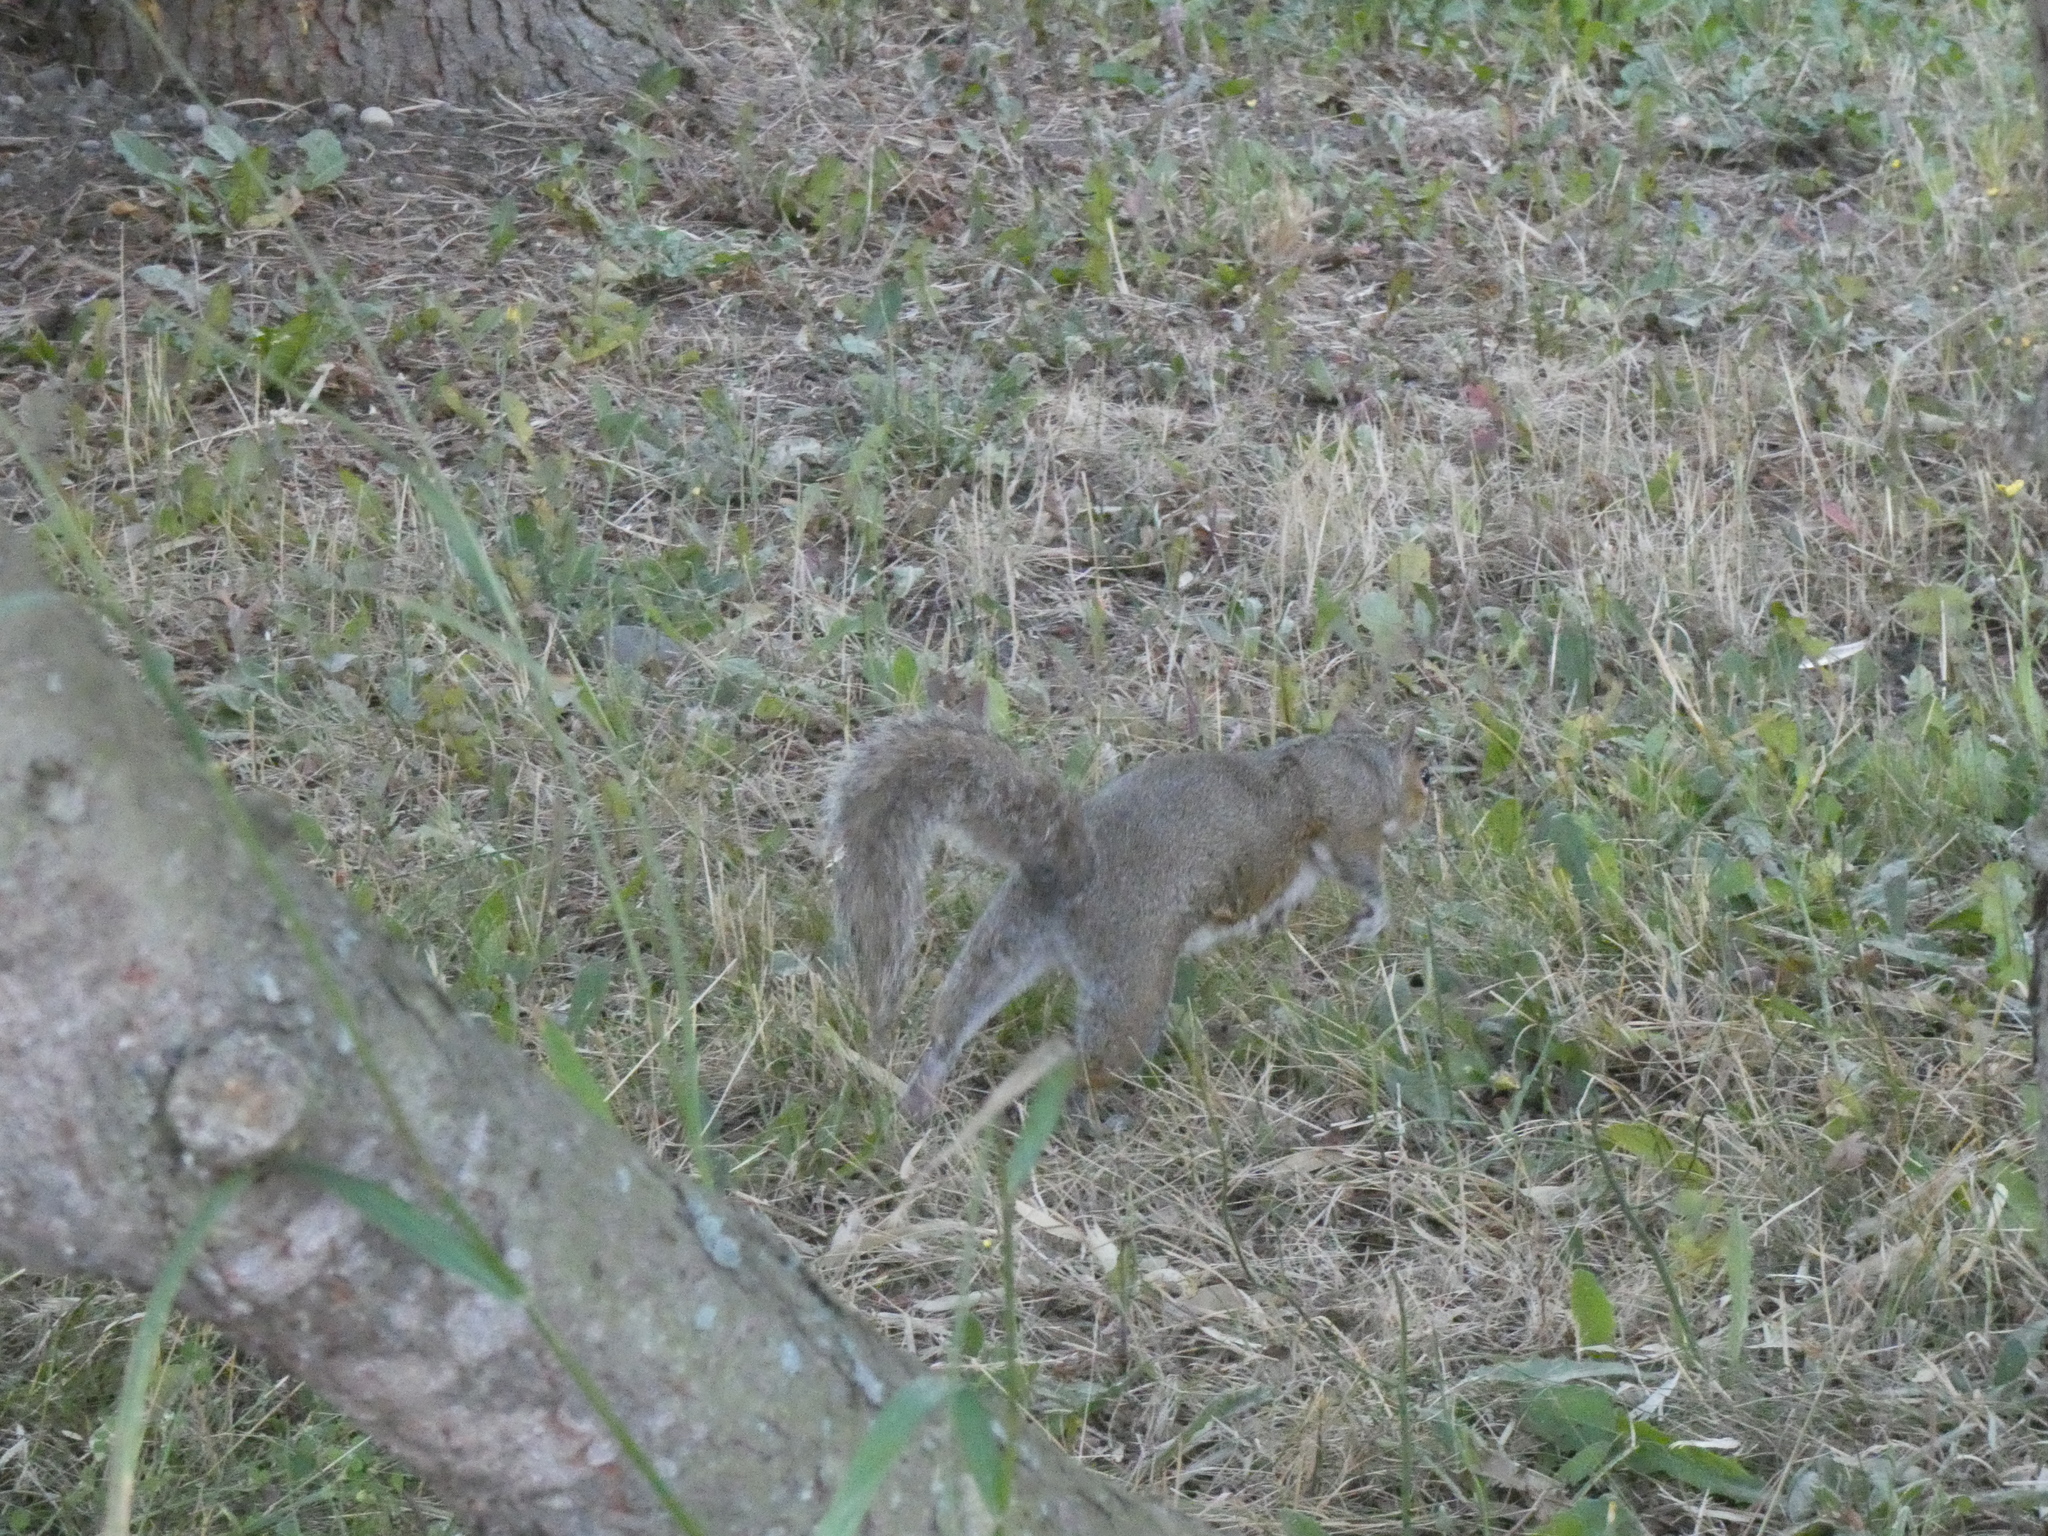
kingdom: Animalia
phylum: Chordata
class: Mammalia
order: Rodentia
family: Sciuridae
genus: Sciurus
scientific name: Sciurus carolinensis
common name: Eastern gray squirrel
